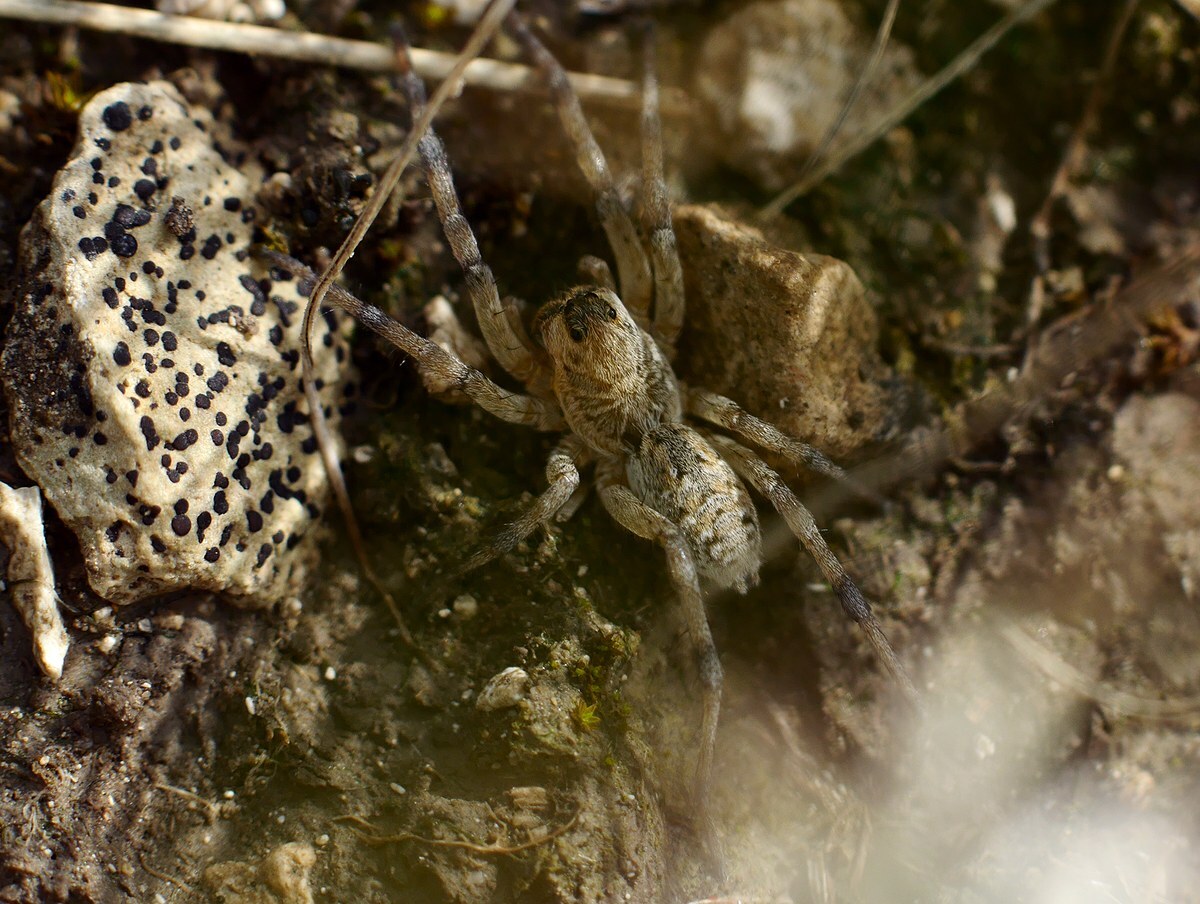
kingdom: Animalia
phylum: Arthropoda
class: Arachnida
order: Araneae
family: Lycosidae
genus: Geolycosa
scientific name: Geolycosa vultuosa
